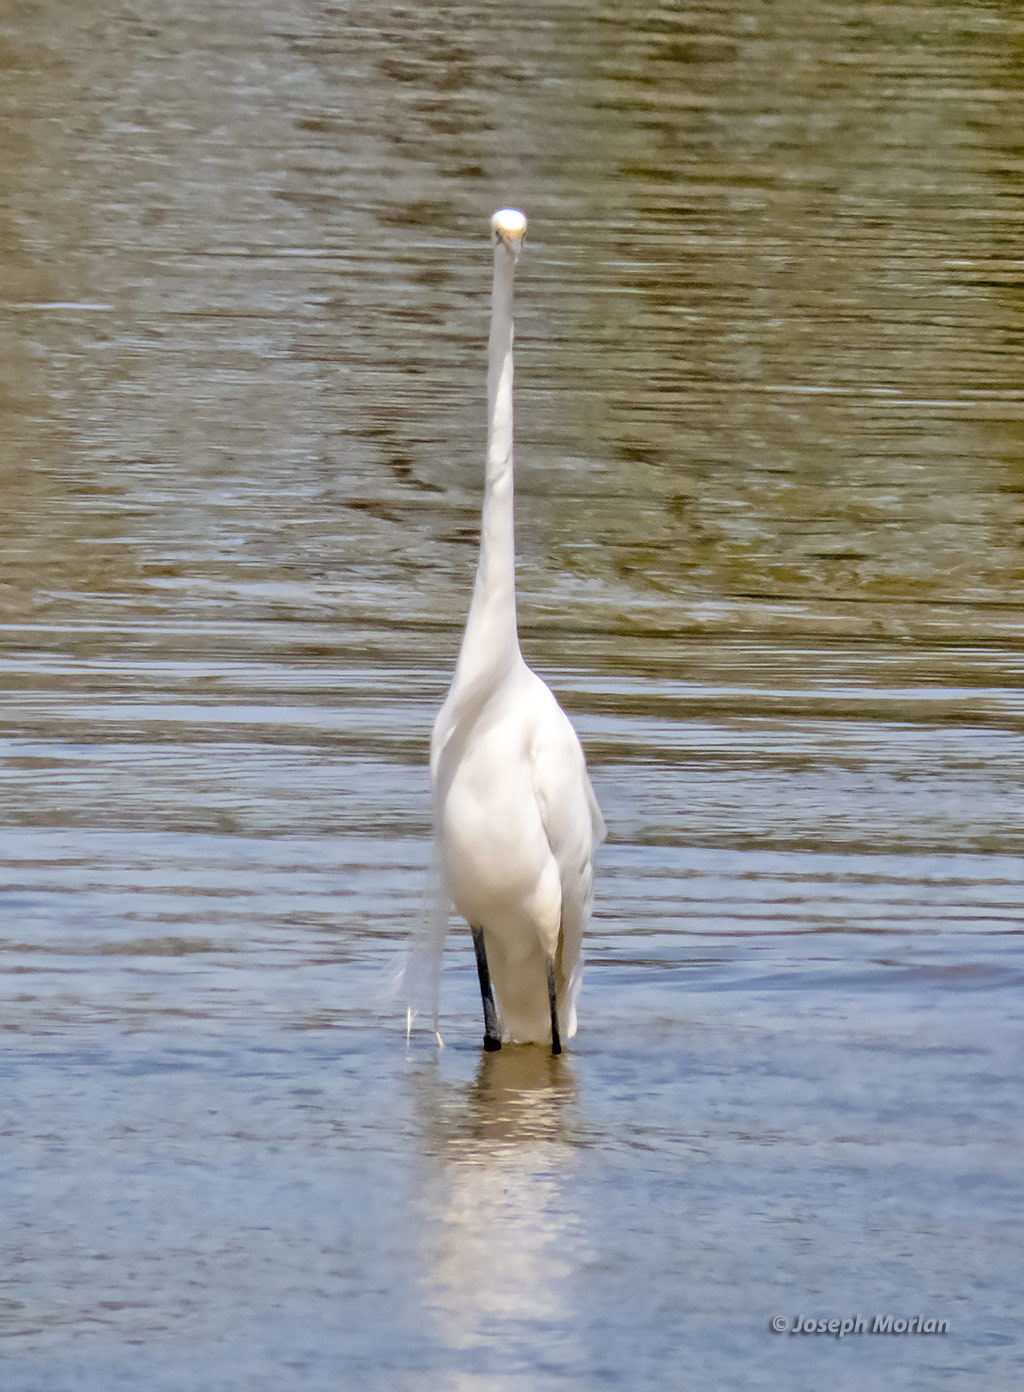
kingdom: Animalia
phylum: Chordata
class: Aves
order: Pelecaniformes
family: Ardeidae
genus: Ardea
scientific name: Ardea alba
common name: Great egret
